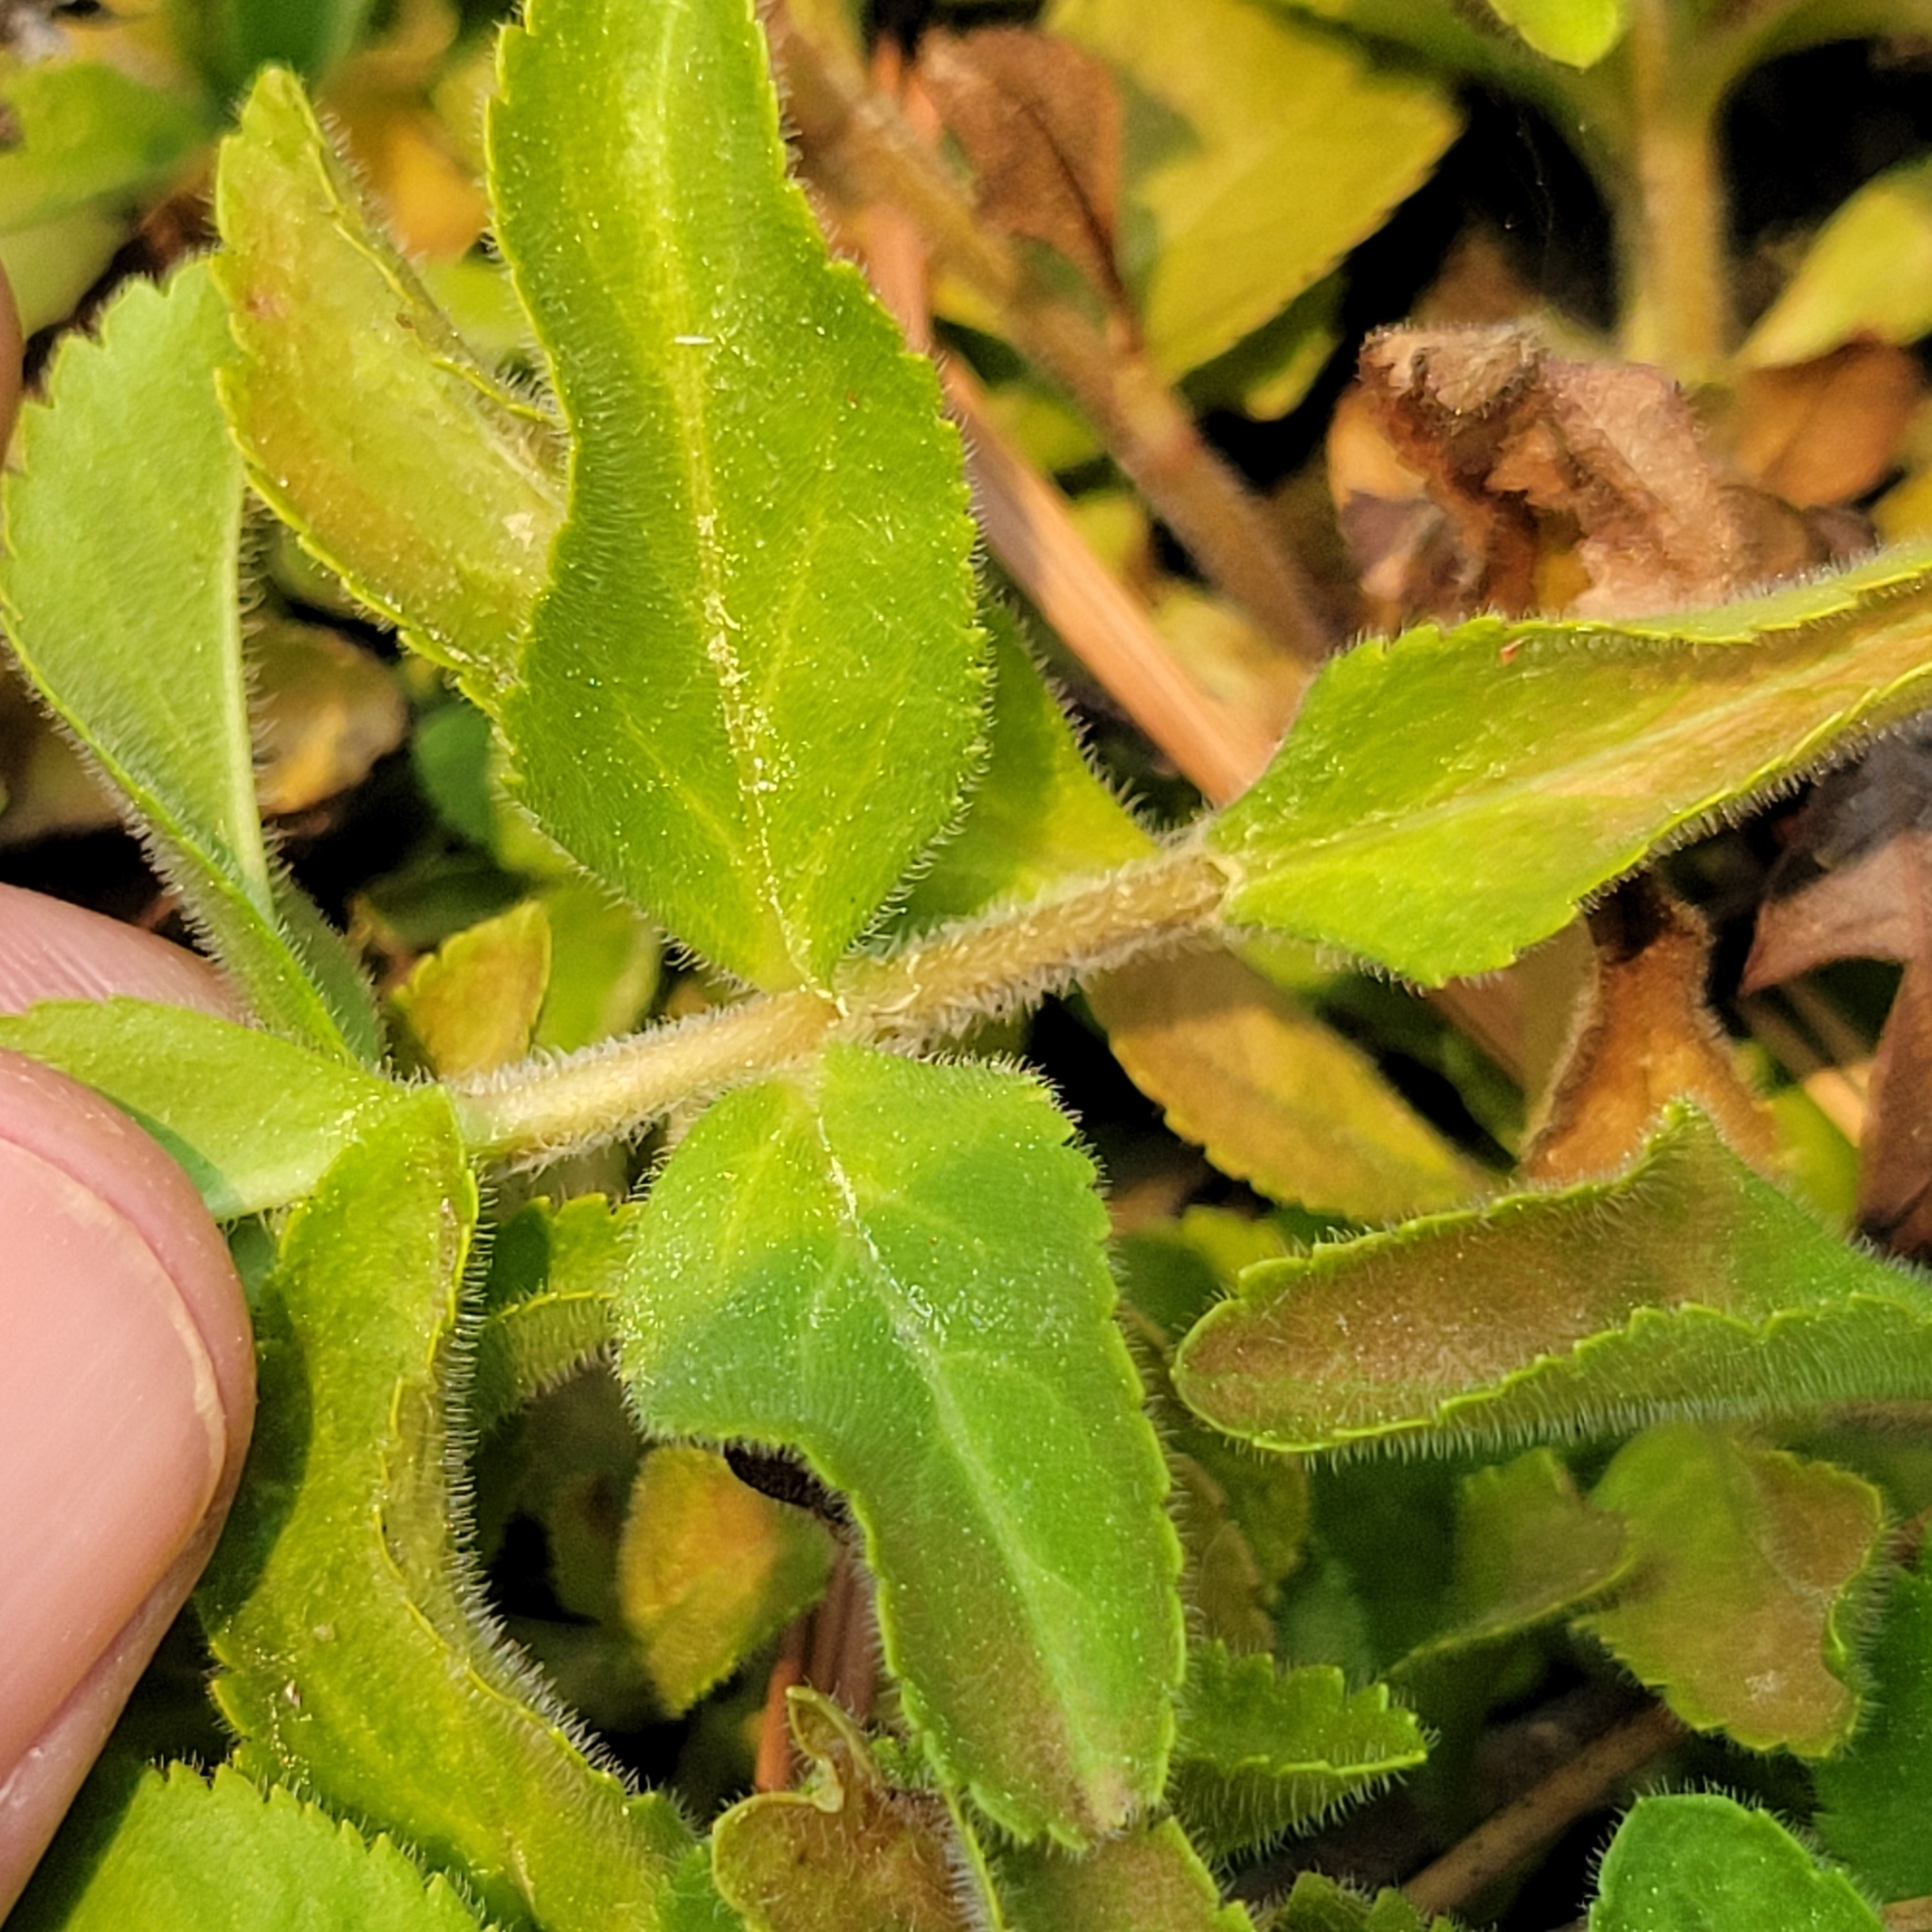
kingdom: Plantae
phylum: Tracheophyta
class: Magnoliopsida
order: Lamiales
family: Plantaginaceae
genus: Veronica
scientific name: Veronica officinalis
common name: Common speedwell
